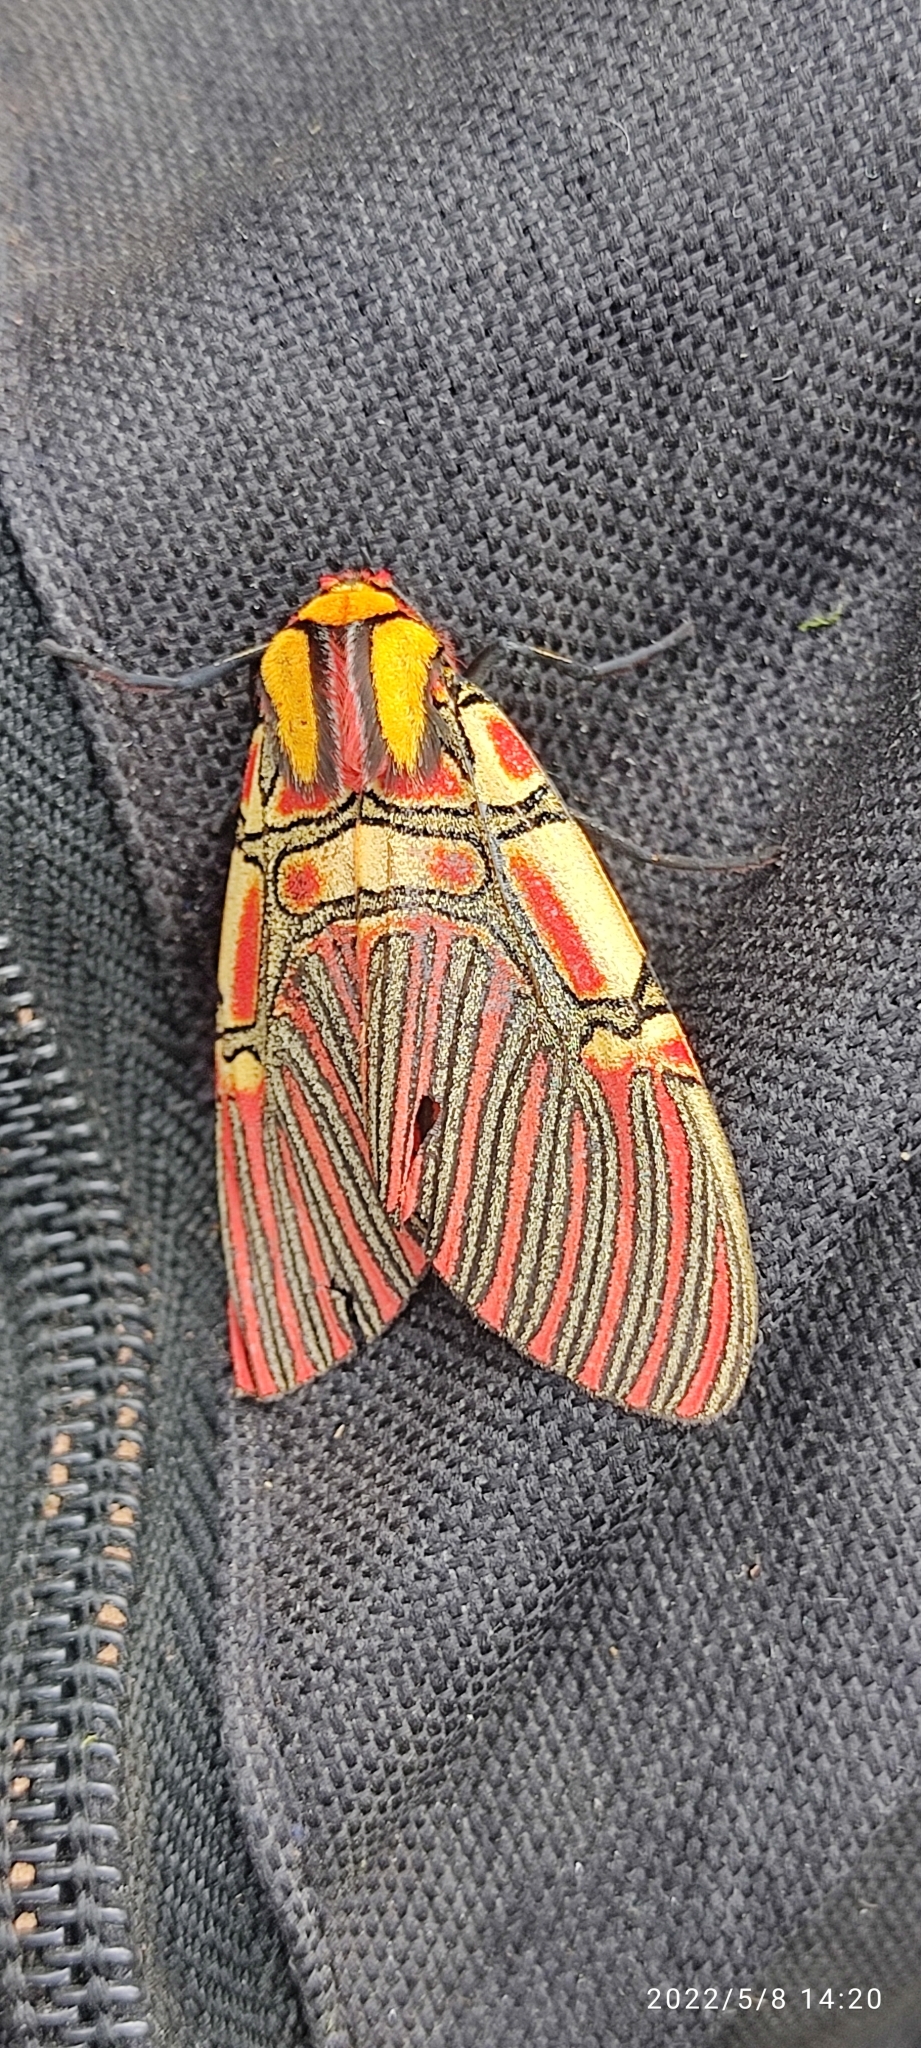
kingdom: Animalia
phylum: Arthropoda
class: Insecta
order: Lepidoptera
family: Erebidae
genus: Anaxita
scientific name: Anaxita sannionis
